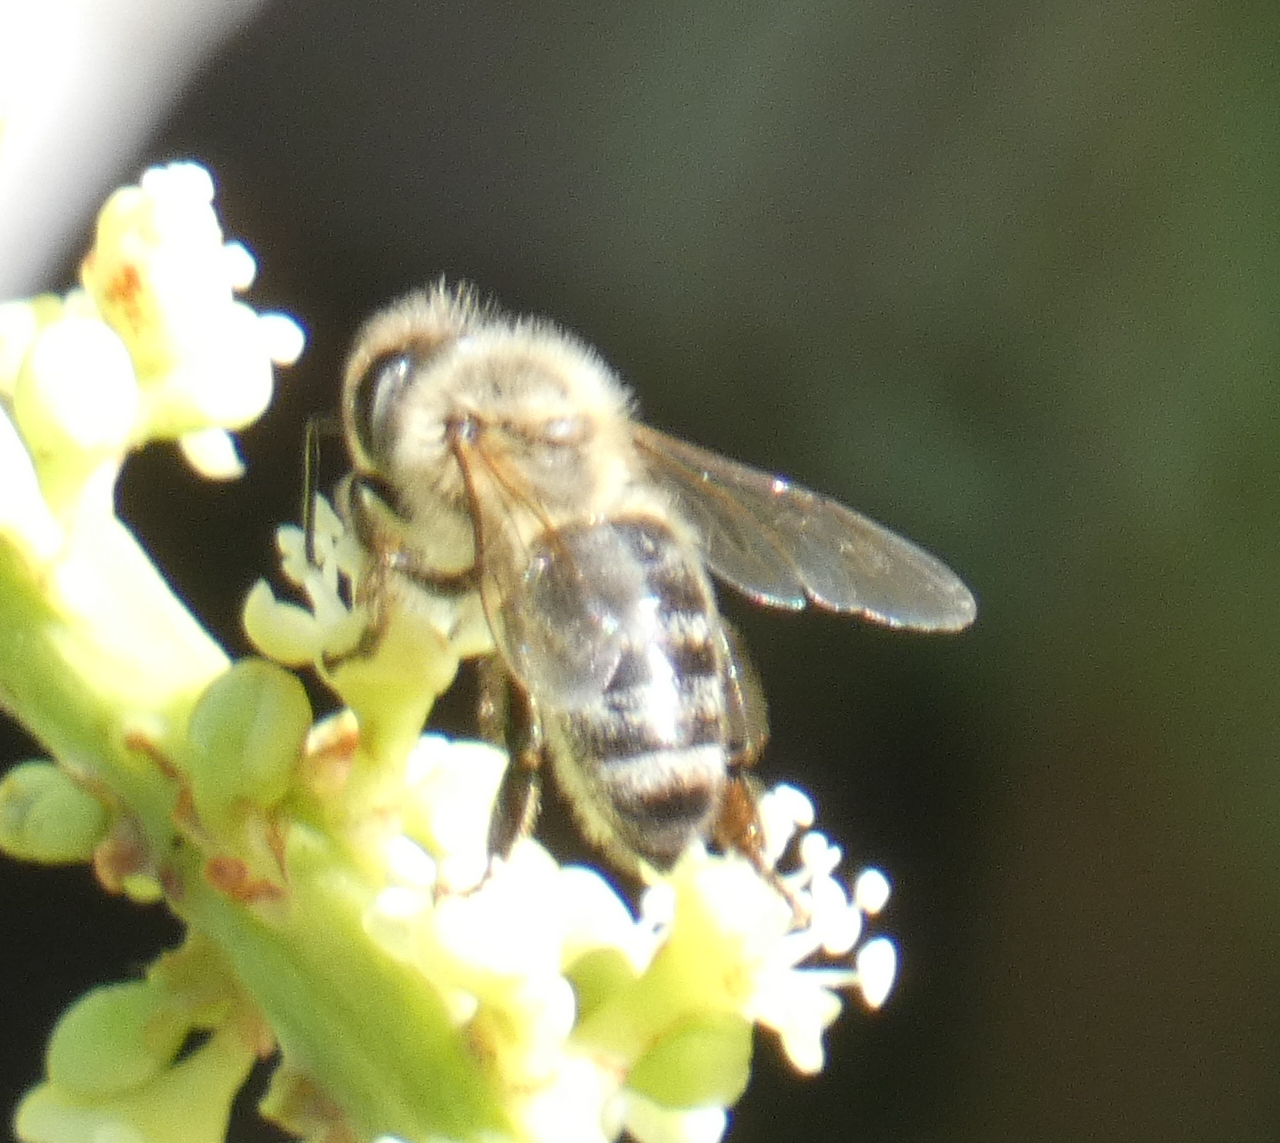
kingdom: Animalia
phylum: Arthropoda
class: Insecta
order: Hymenoptera
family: Apidae
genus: Apis
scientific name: Apis mellifera
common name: Honey bee
